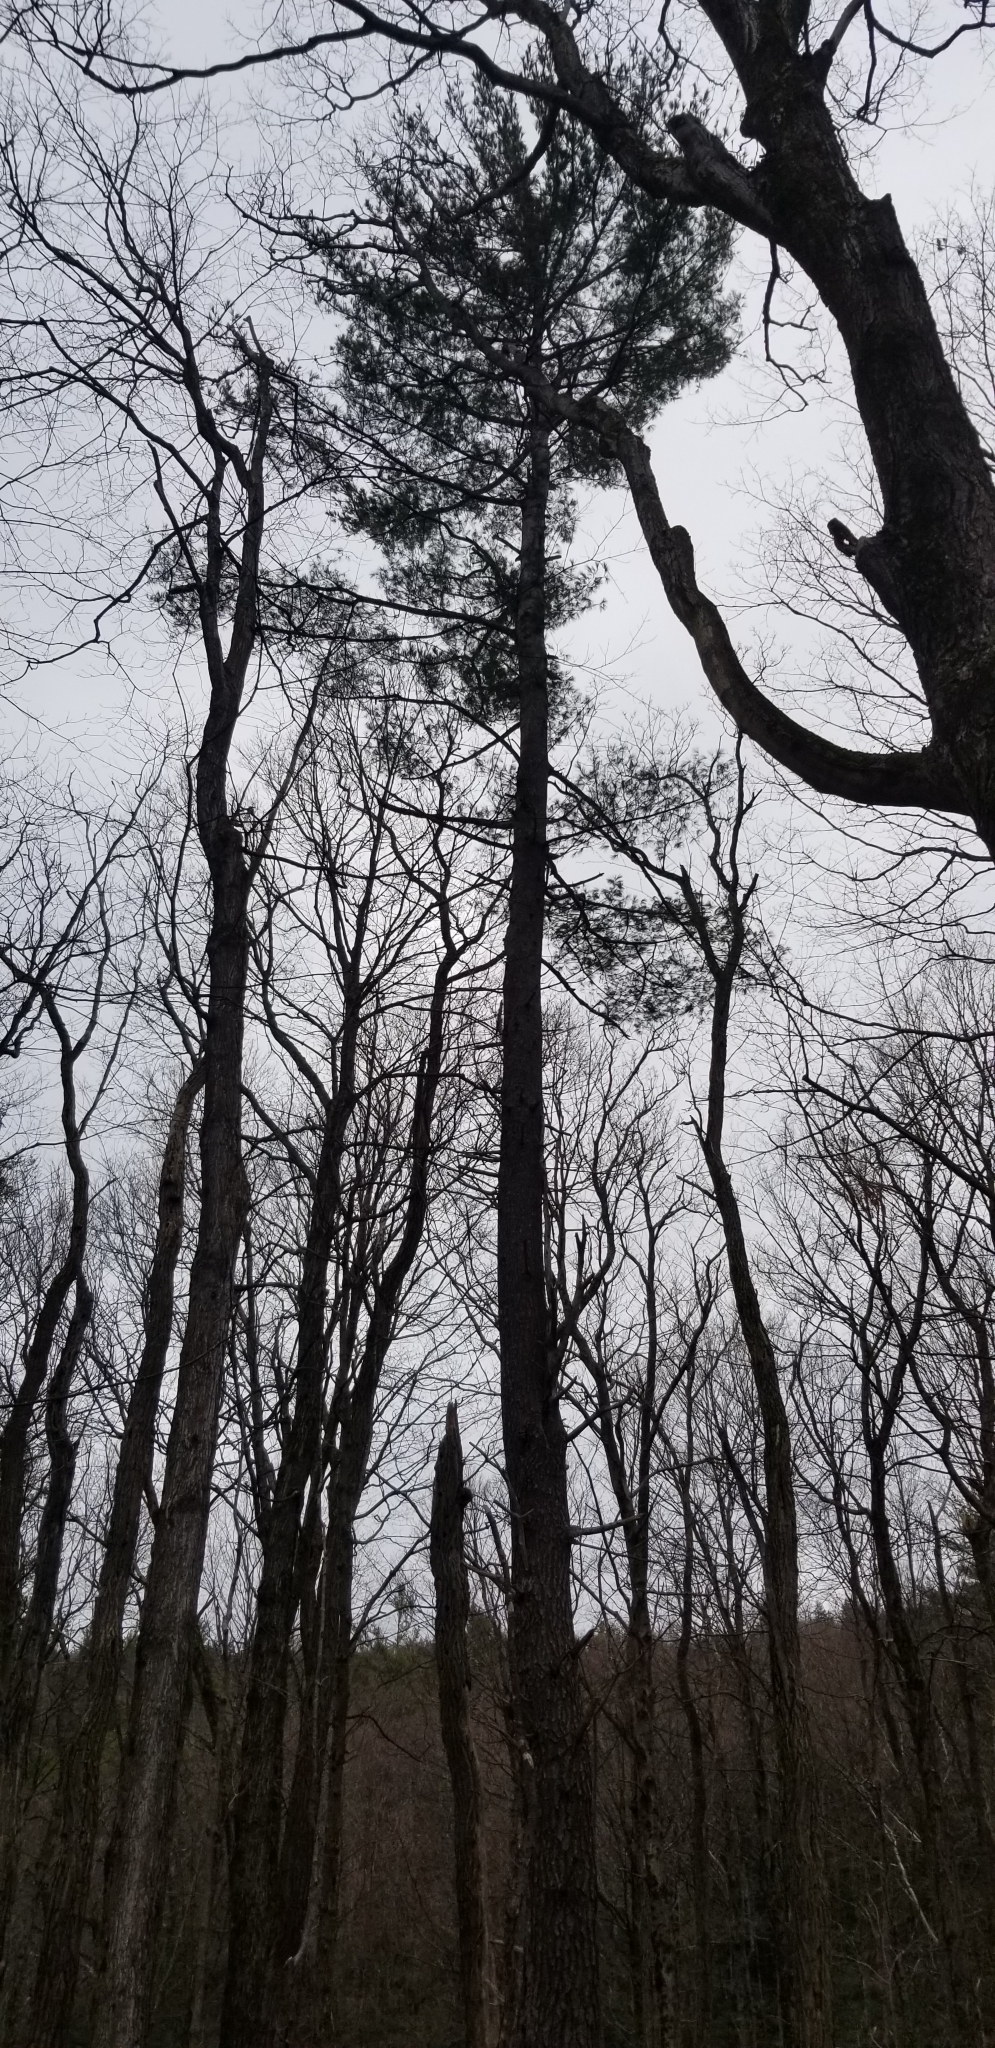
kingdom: Plantae
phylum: Tracheophyta
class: Pinopsida
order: Pinales
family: Pinaceae
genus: Pinus
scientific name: Pinus strobus
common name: Weymouth pine
